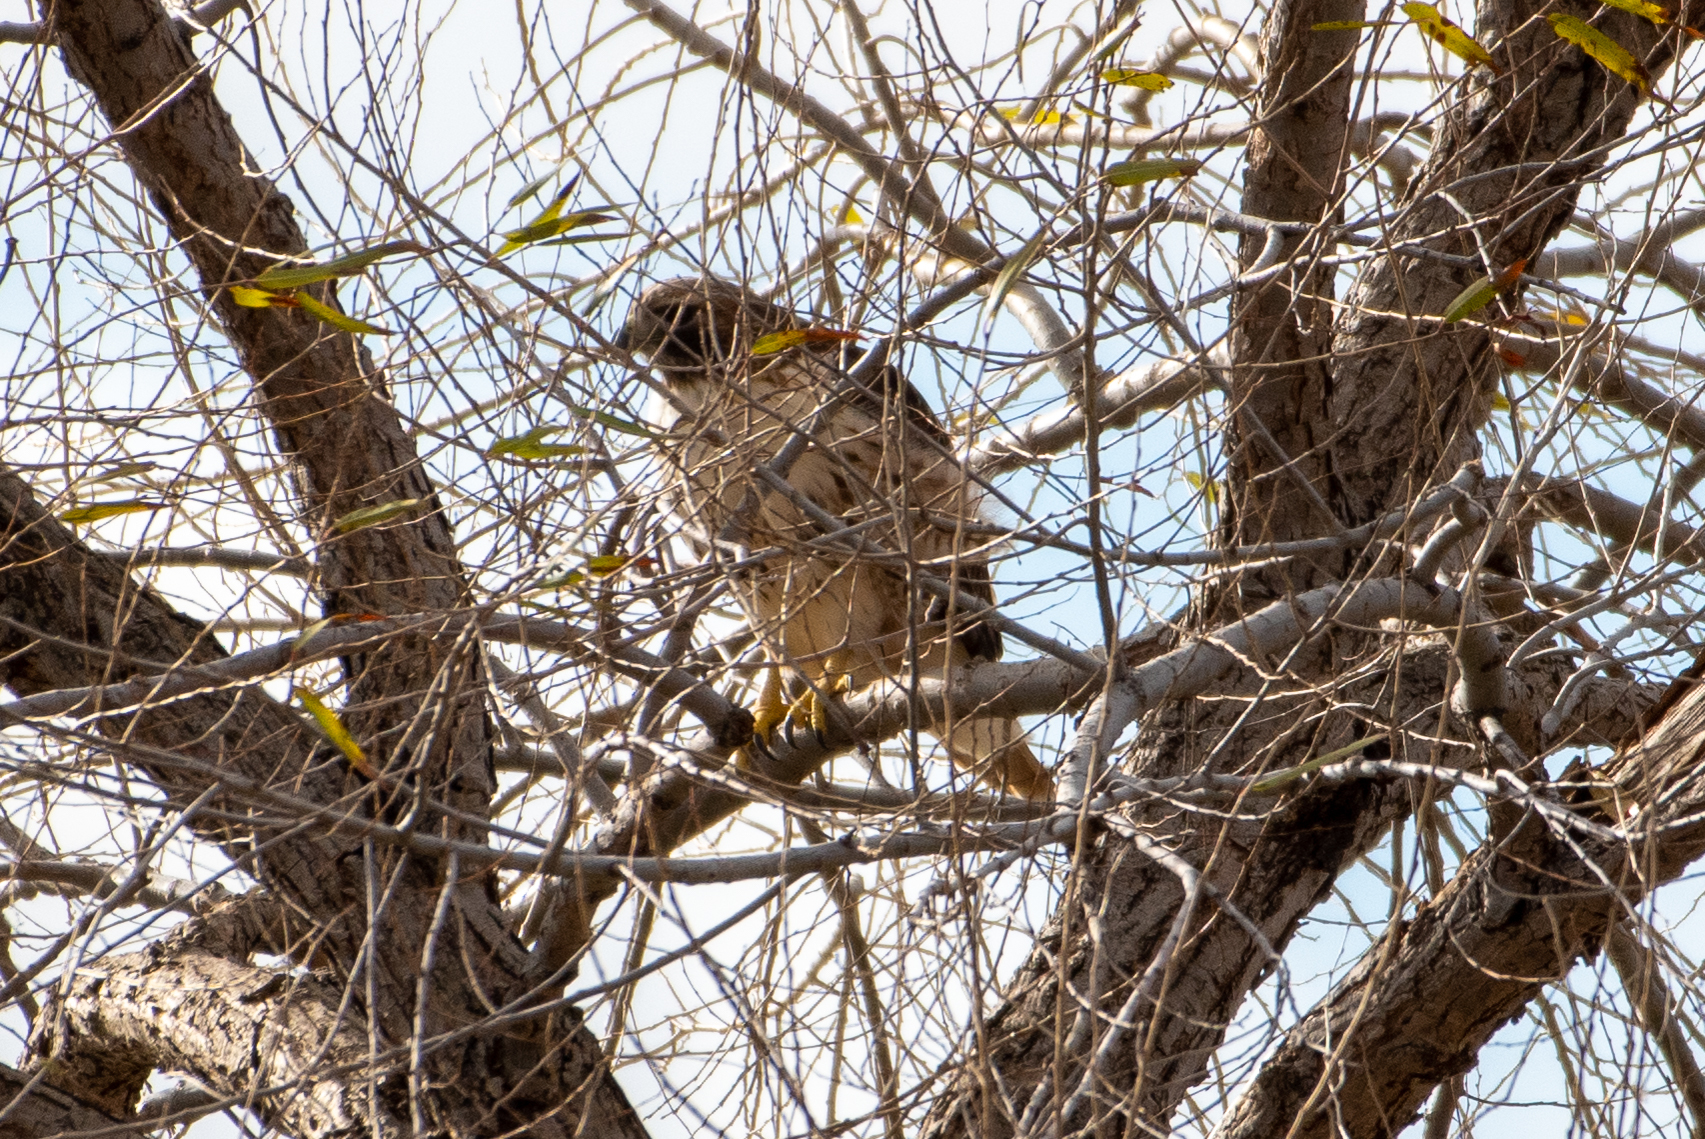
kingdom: Animalia
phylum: Chordata
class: Aves
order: Accipitriformes
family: Accipitridae
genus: Buteo
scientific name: Buteo jamaicensis
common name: Red-tailed hawk
